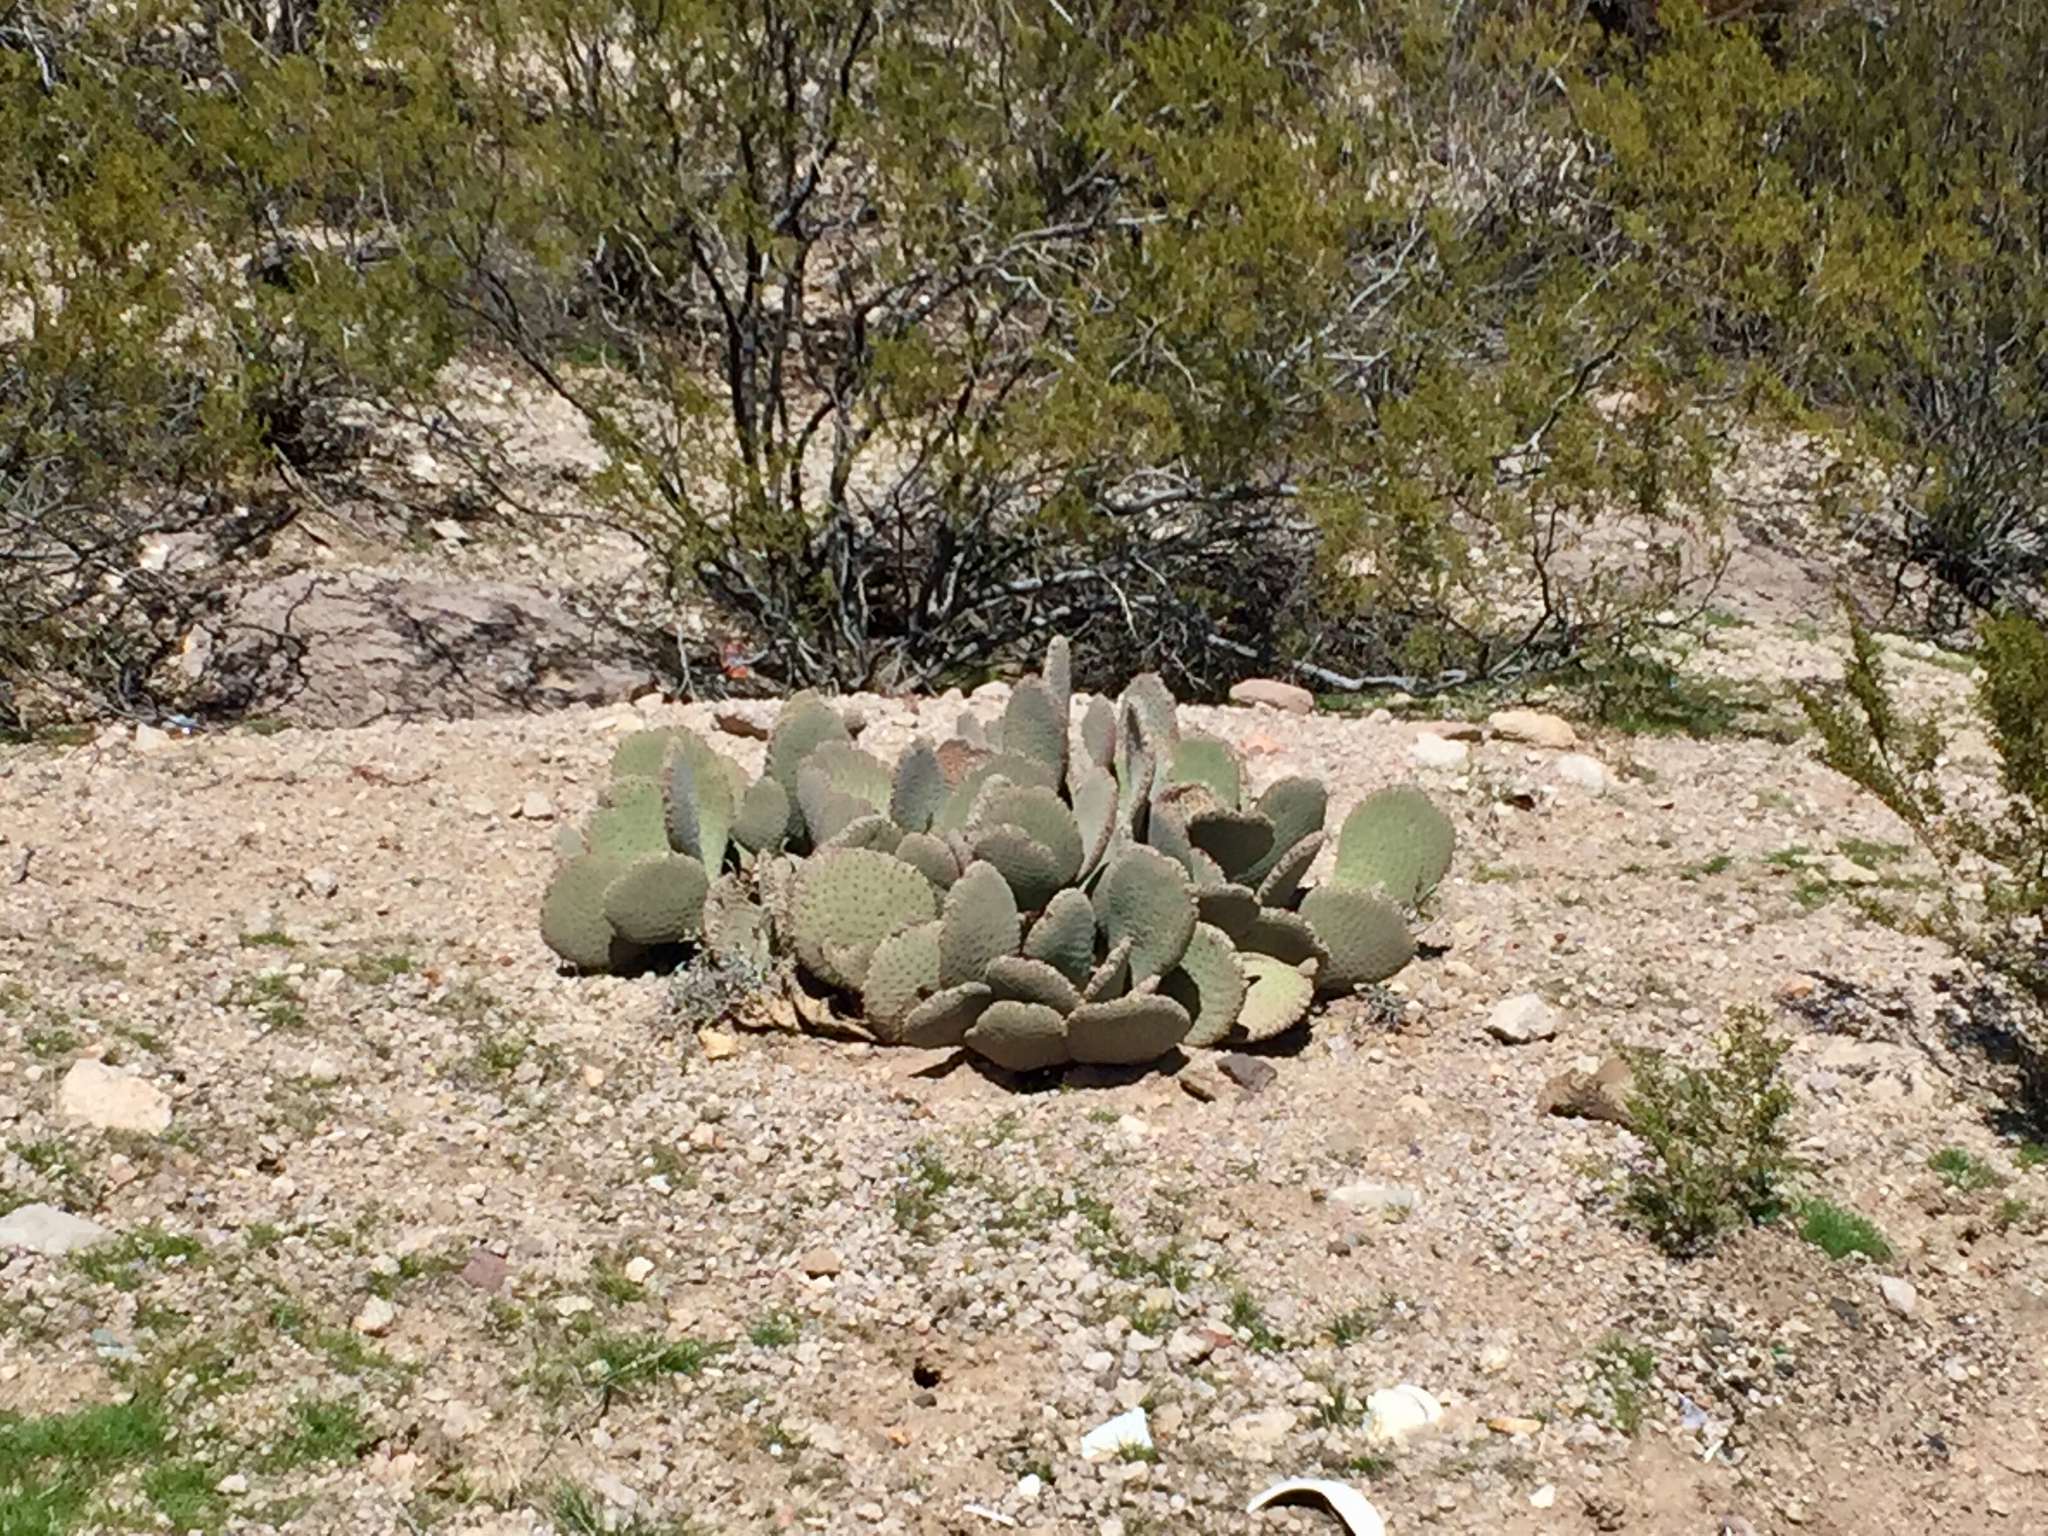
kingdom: Plantae
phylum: Tracheophyta
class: Magnoliopsida
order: Caryophyllales
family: Cactaceae
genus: Opuntia
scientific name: Opuntia basilaris
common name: Beavertail prickly-pear
